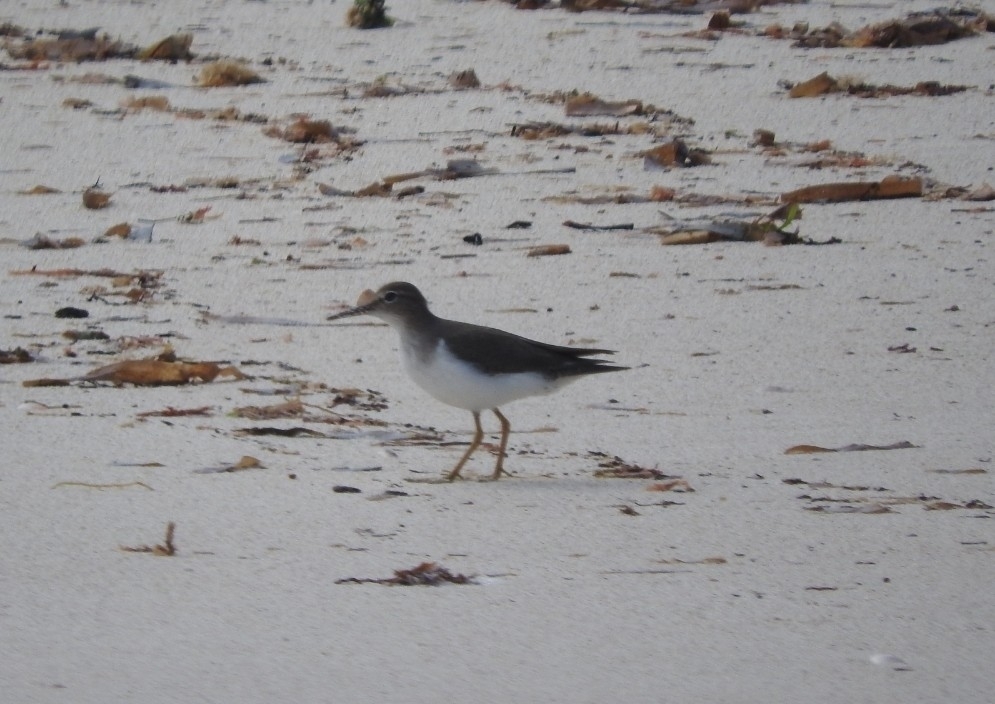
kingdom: Animalia
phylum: Chordata
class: Aves
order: Charadriiformes
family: Scolopacidae
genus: Actitis
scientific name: Actitis macularius
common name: Spotted sandpiper
